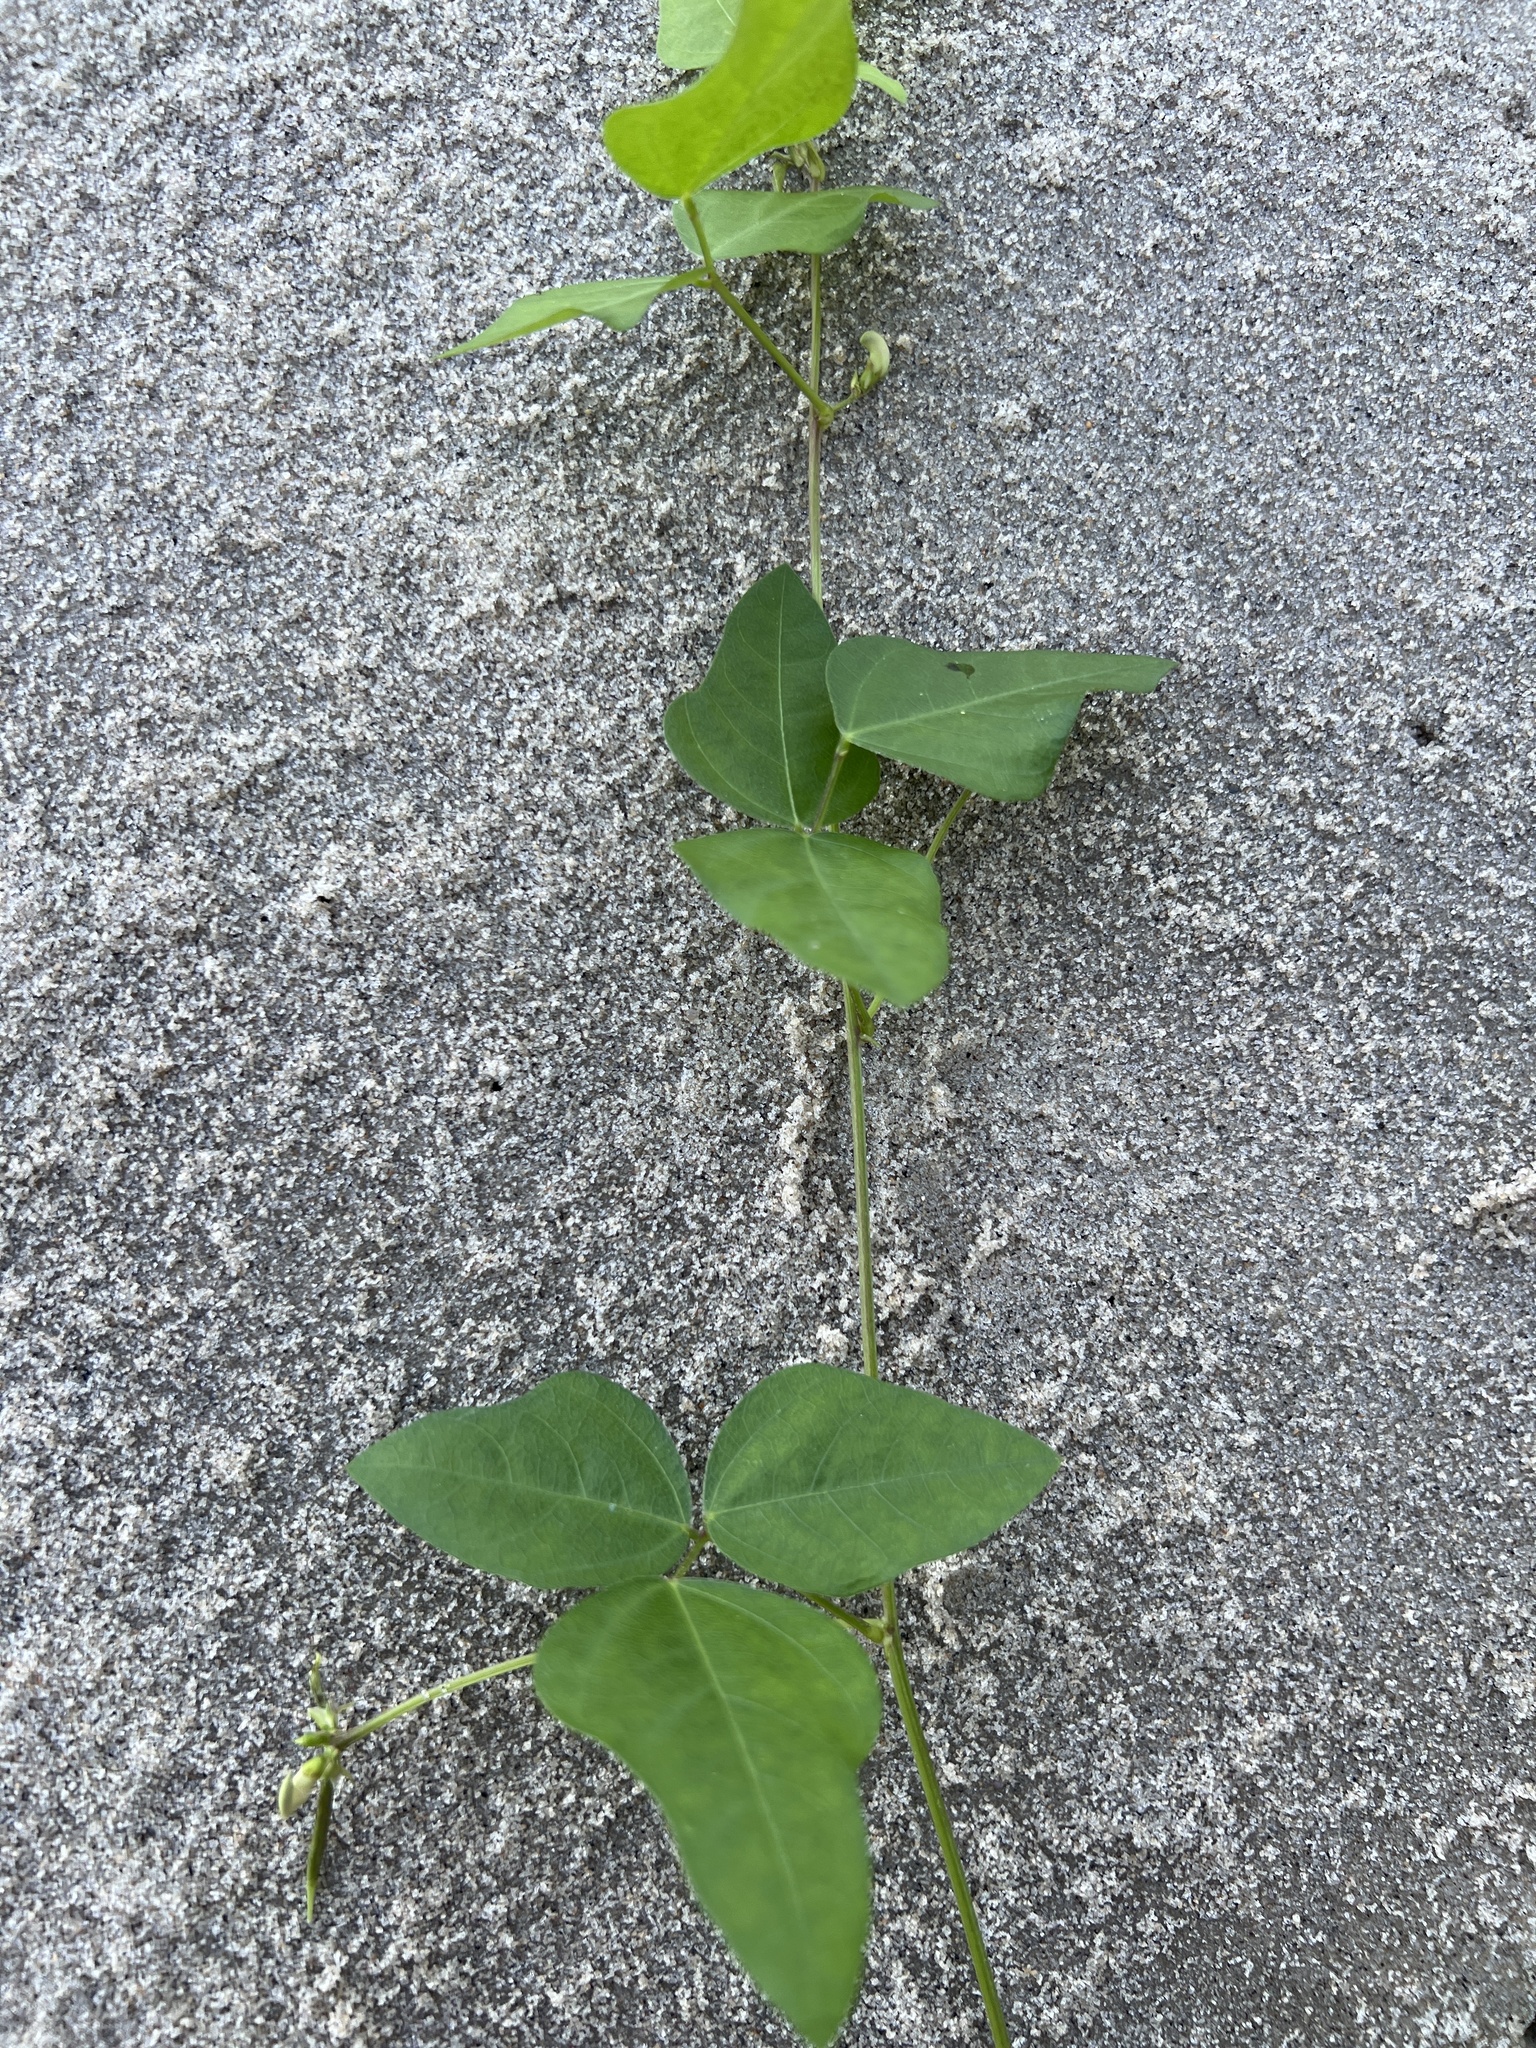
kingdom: Plantae
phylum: Tracheophyta
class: Magnoliopsida
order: Fabales
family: Fabaceae
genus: Strophostyles
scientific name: Strophostyles helvola
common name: Trailing wild bean
